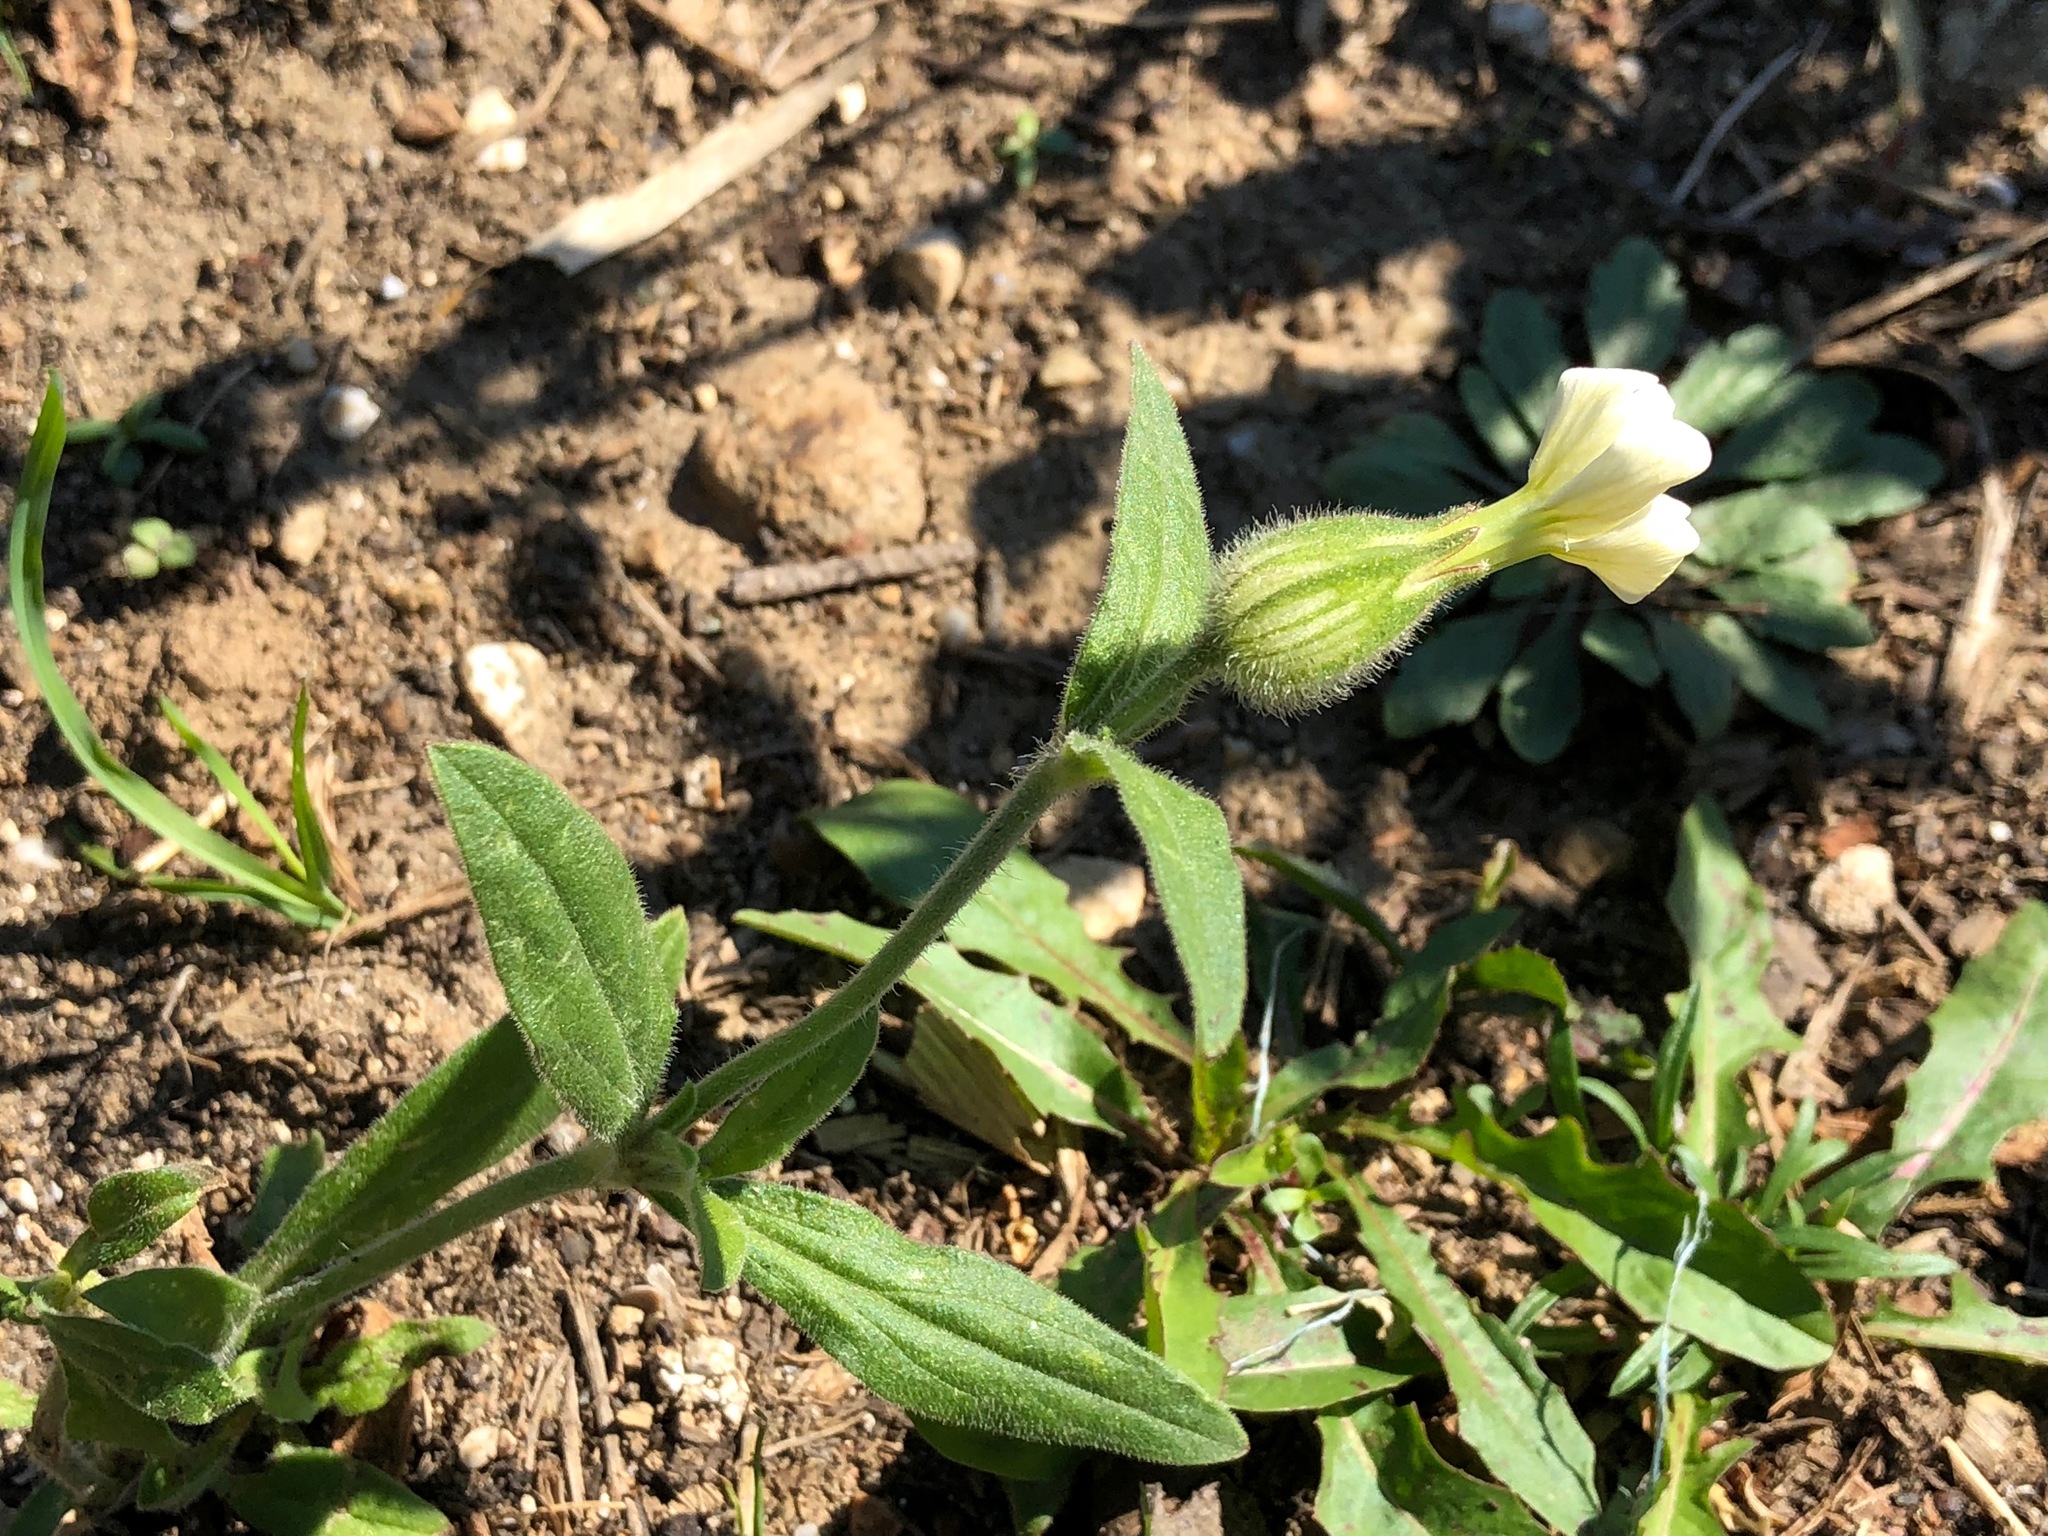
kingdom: Plantae
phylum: Tracheophyta
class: Magnoliopsida
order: Caryophyllales
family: Caryophyllaceae
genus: Silene
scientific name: Silene latifolia
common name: White campion
